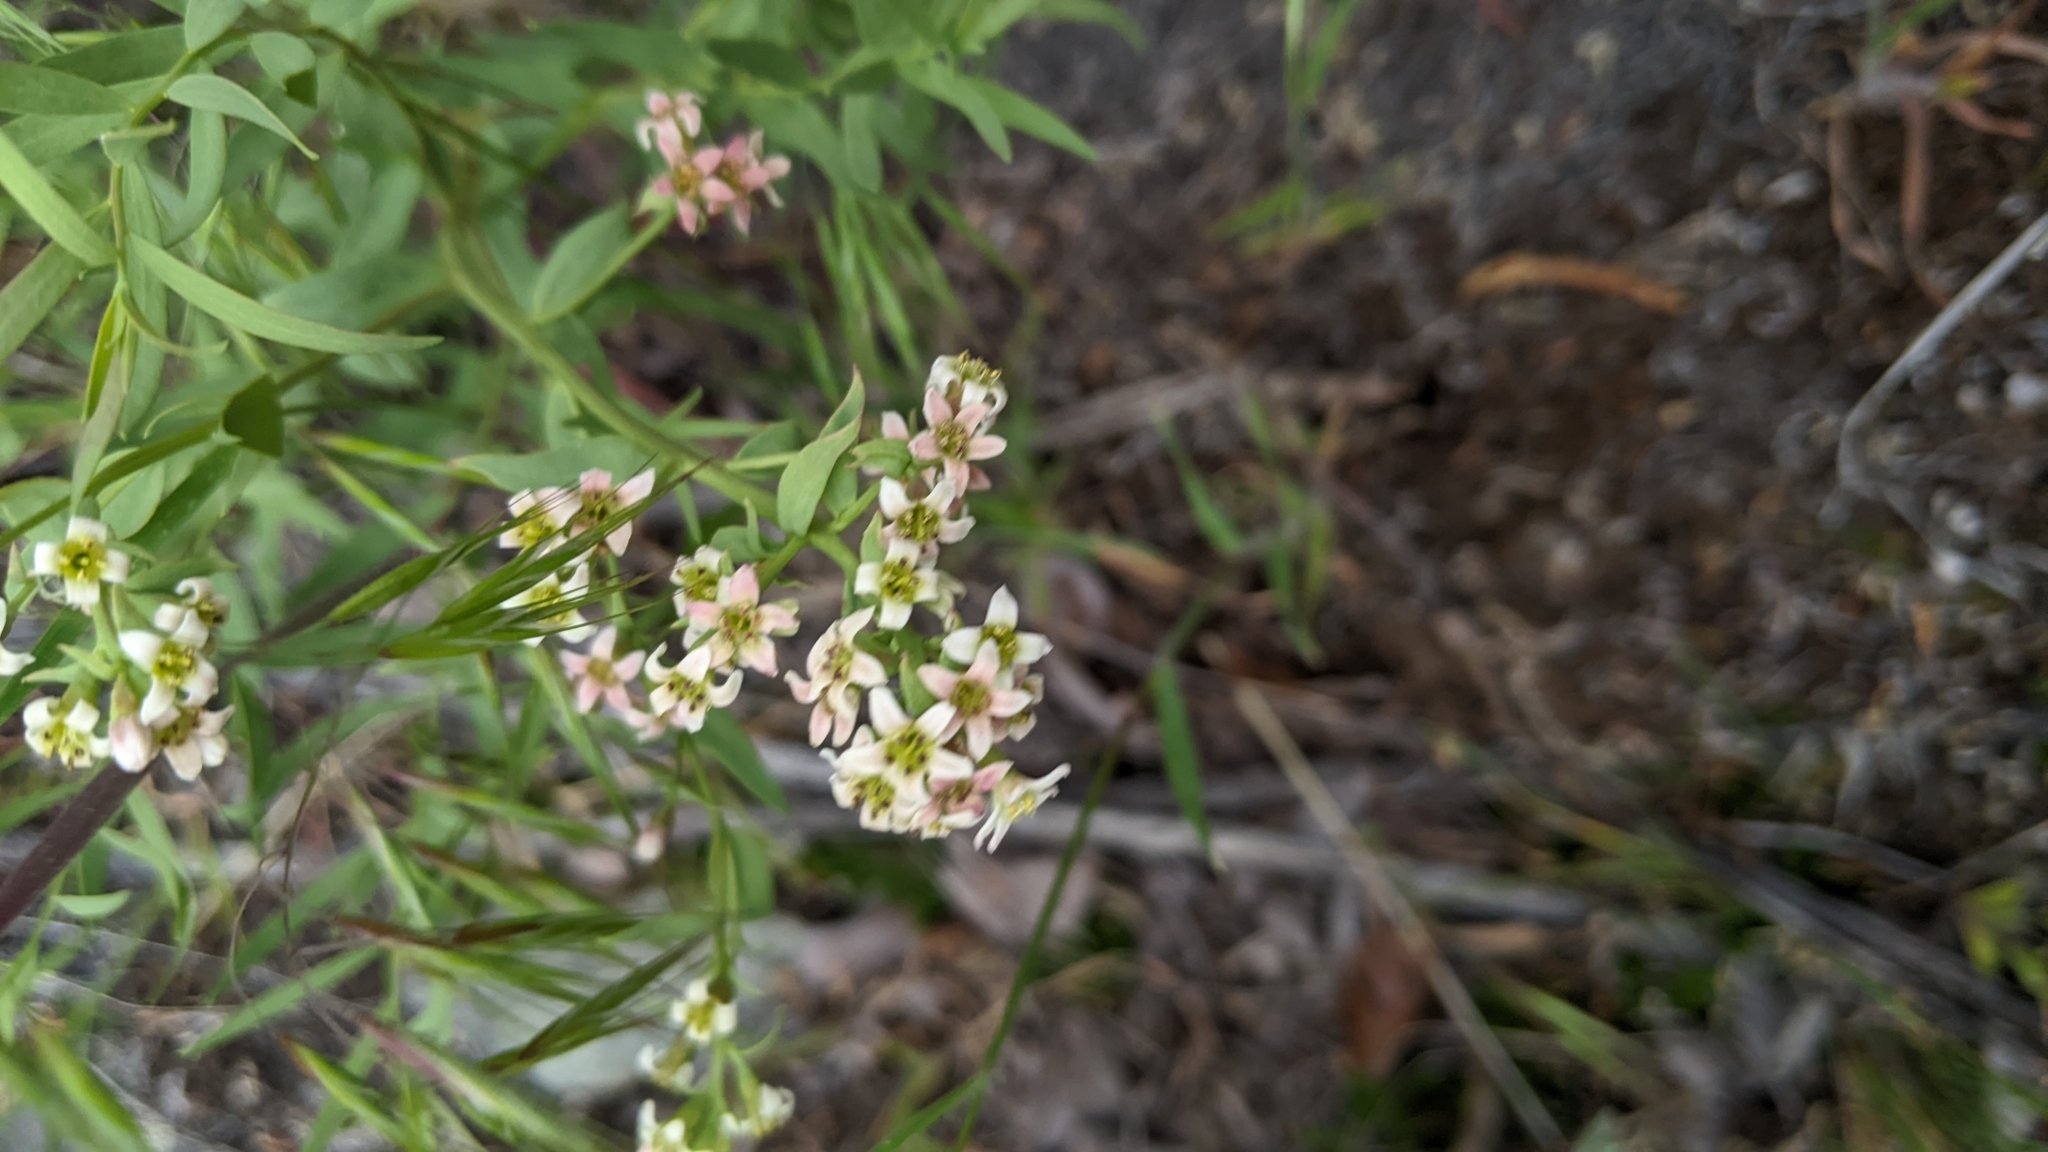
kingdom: Plantae
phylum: Tracheophyta
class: Magnoliopsida
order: Santalales
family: Comandraceae
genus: Comandra
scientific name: Comandra umbellata
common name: Bastard toadflax
